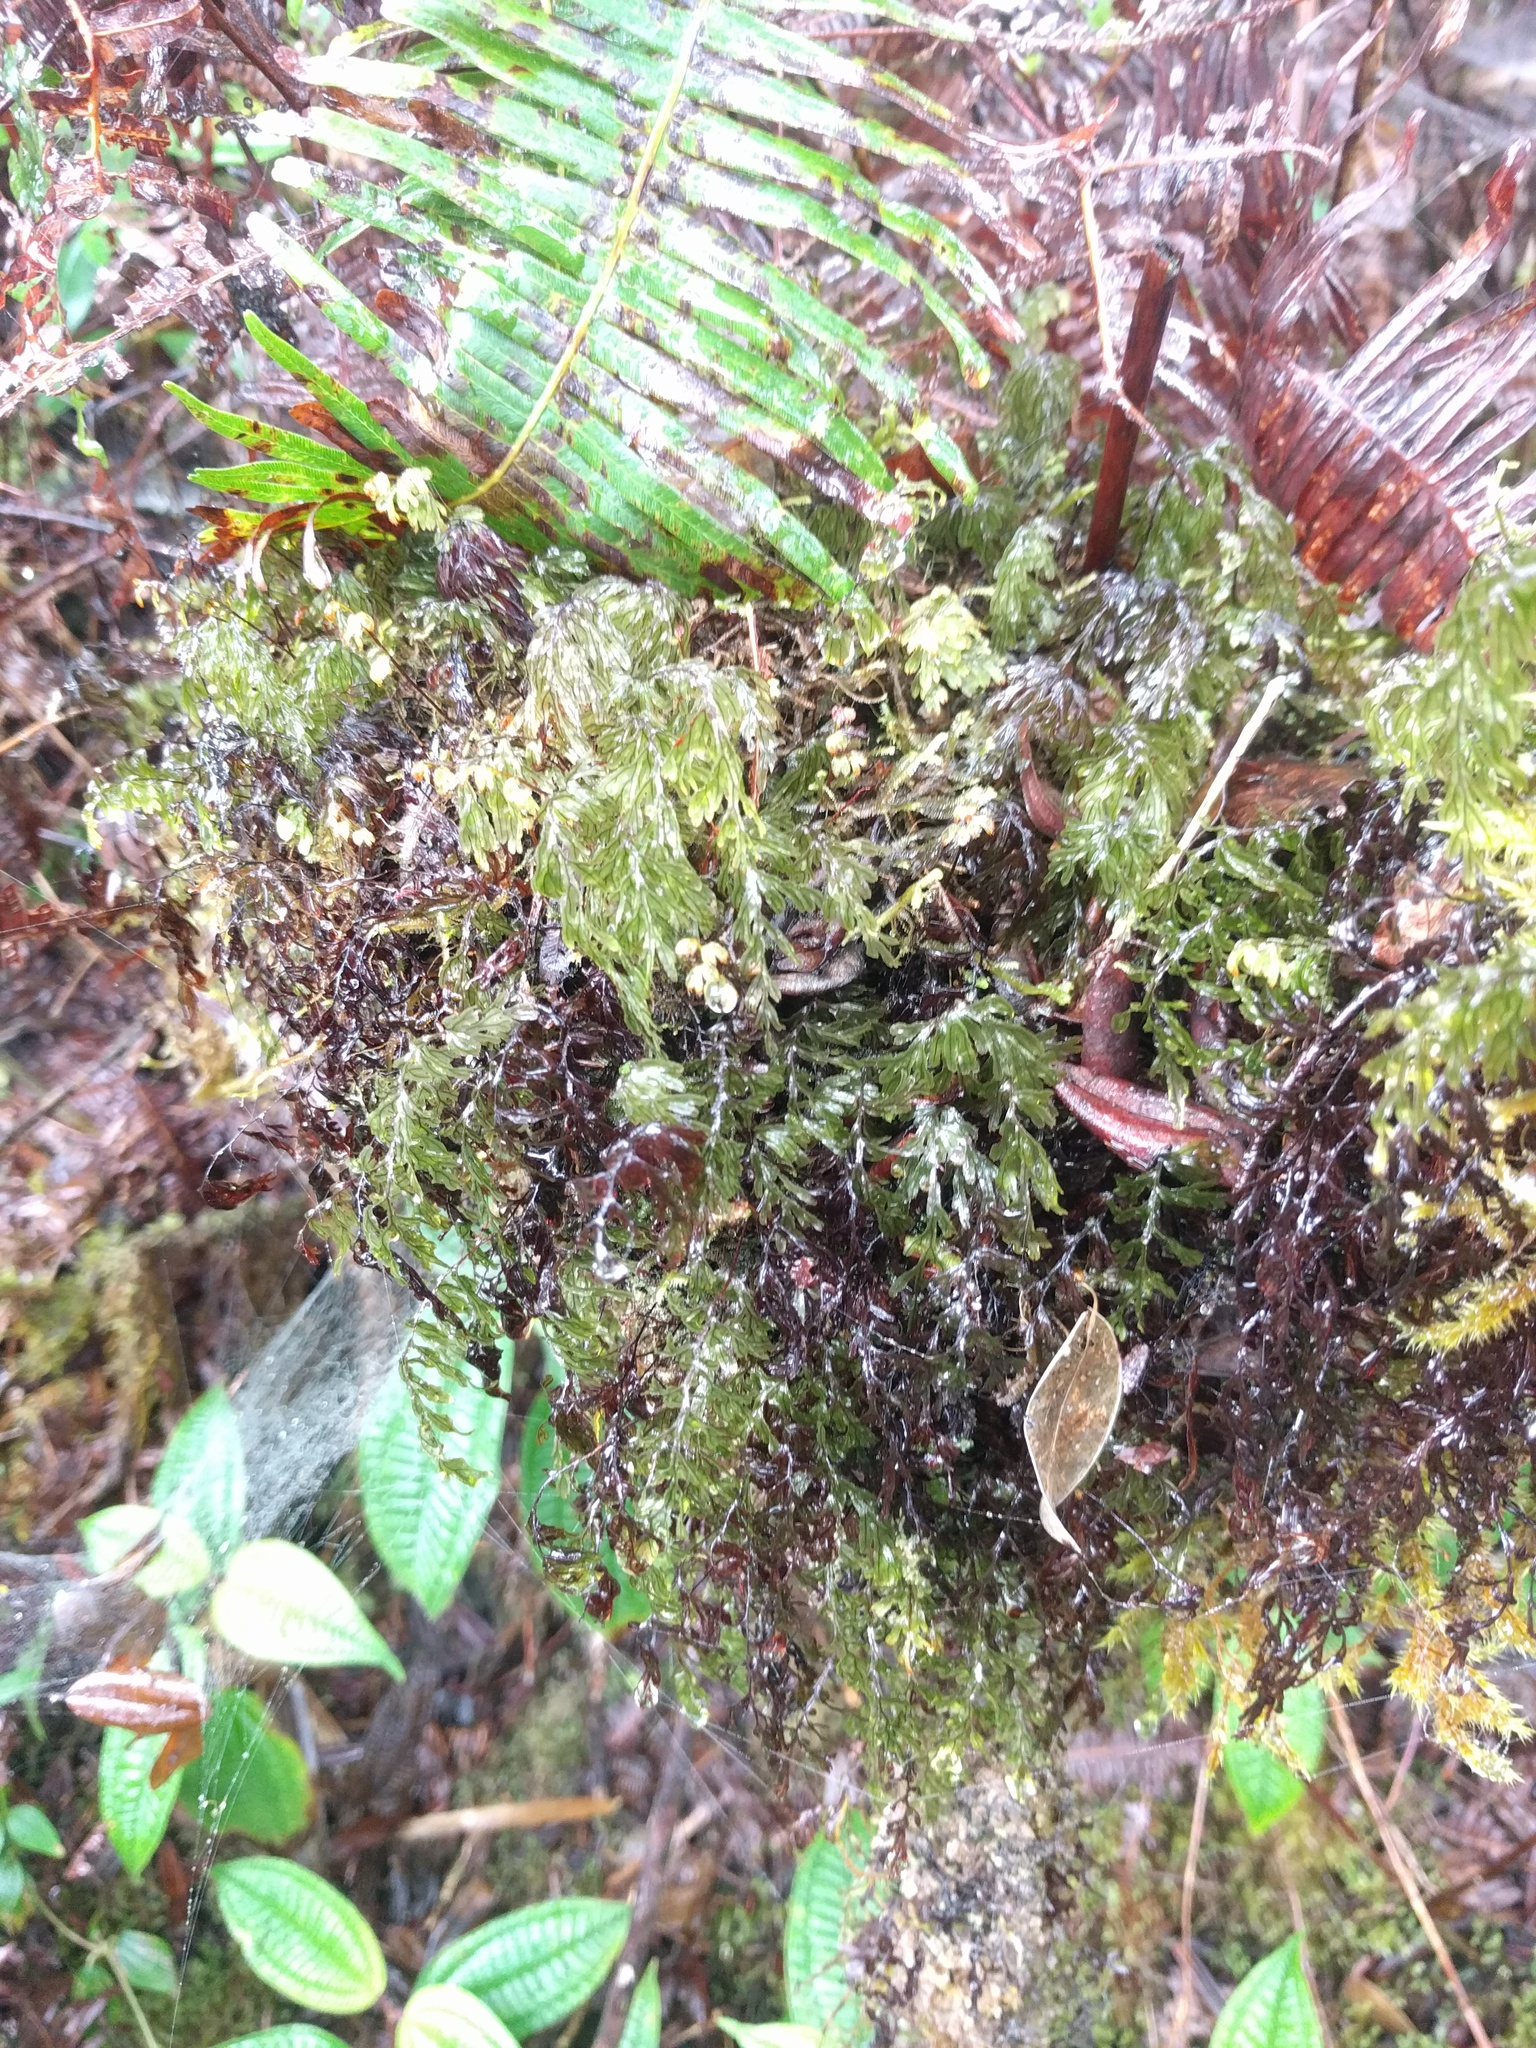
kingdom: Plantae
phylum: Tracheophyta
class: Polypodiopsida
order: Hymenophyllales
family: Hymenophyllaceae
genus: Hymenophyllum
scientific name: Hymenophyllum lanceolatum
